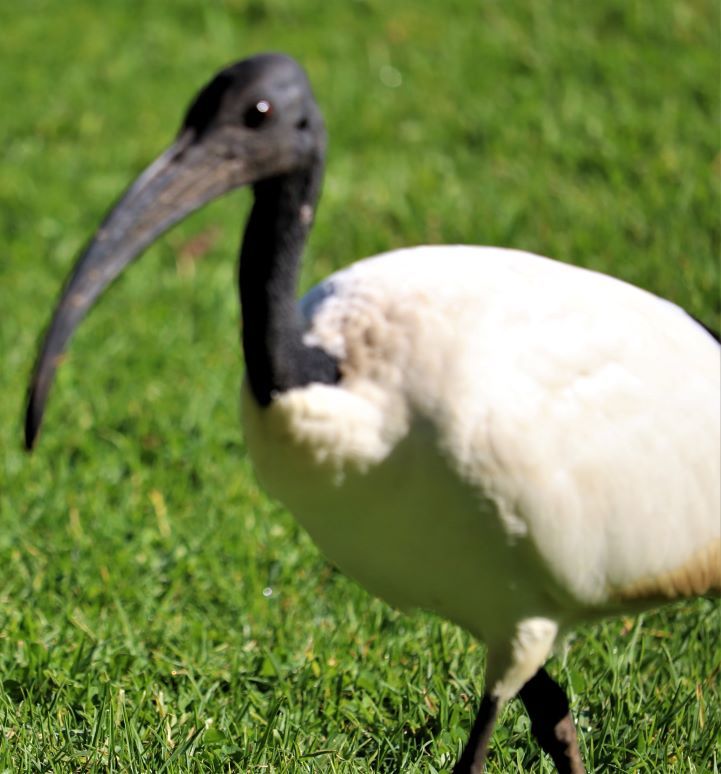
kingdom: Animalia
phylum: Chordata
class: Aves
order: Pelecaniformes
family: Threskiornithidae
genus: Threskiornis
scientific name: Threskiornis aethiopicus
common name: Sacred ibis
